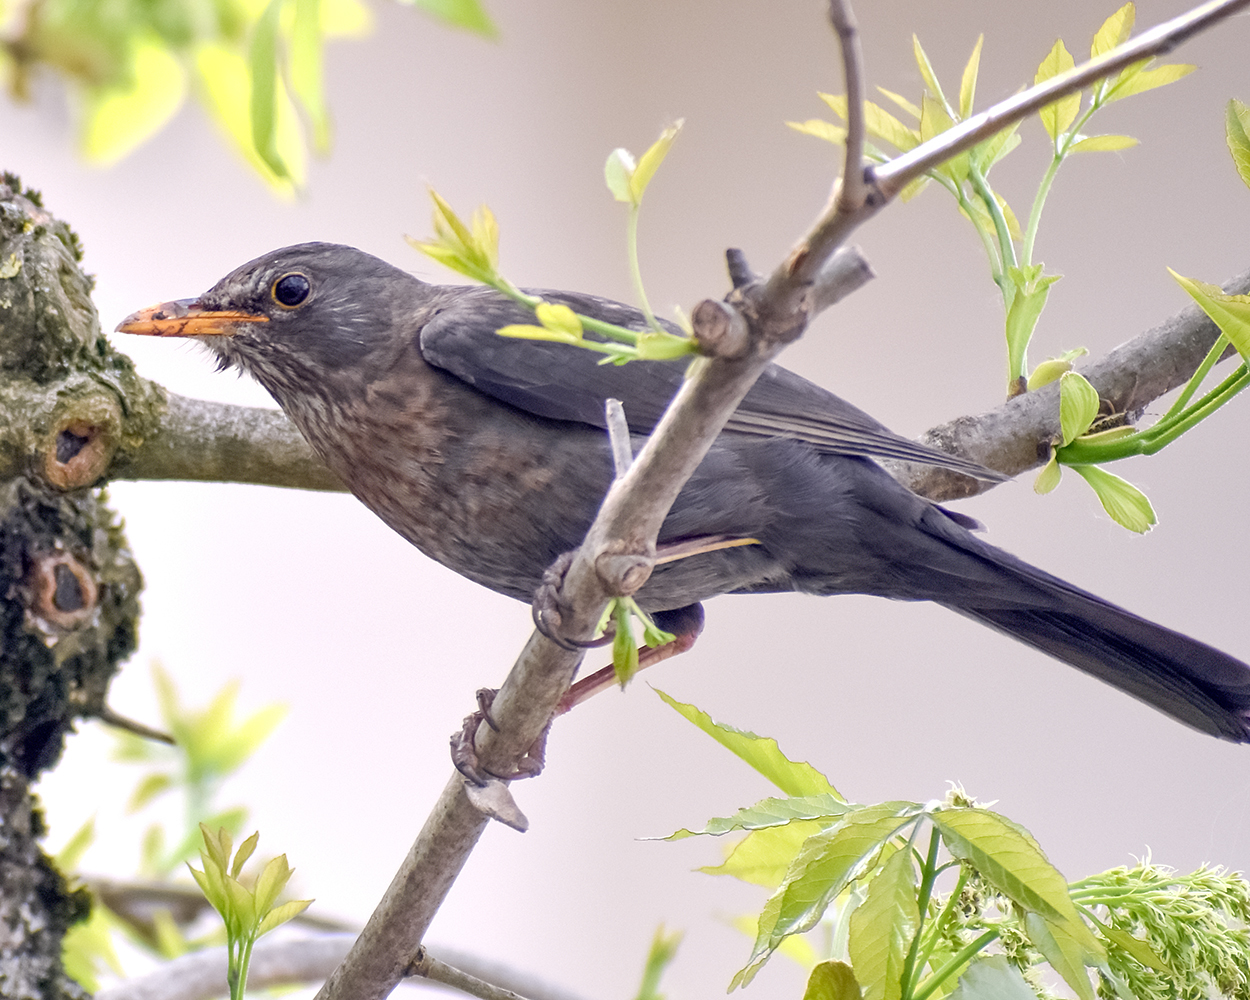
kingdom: Animalia
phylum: Chordata
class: Aves
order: Passeriformes
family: Turdidae
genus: Turdus
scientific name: Turdus merula
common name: Common blackbird
